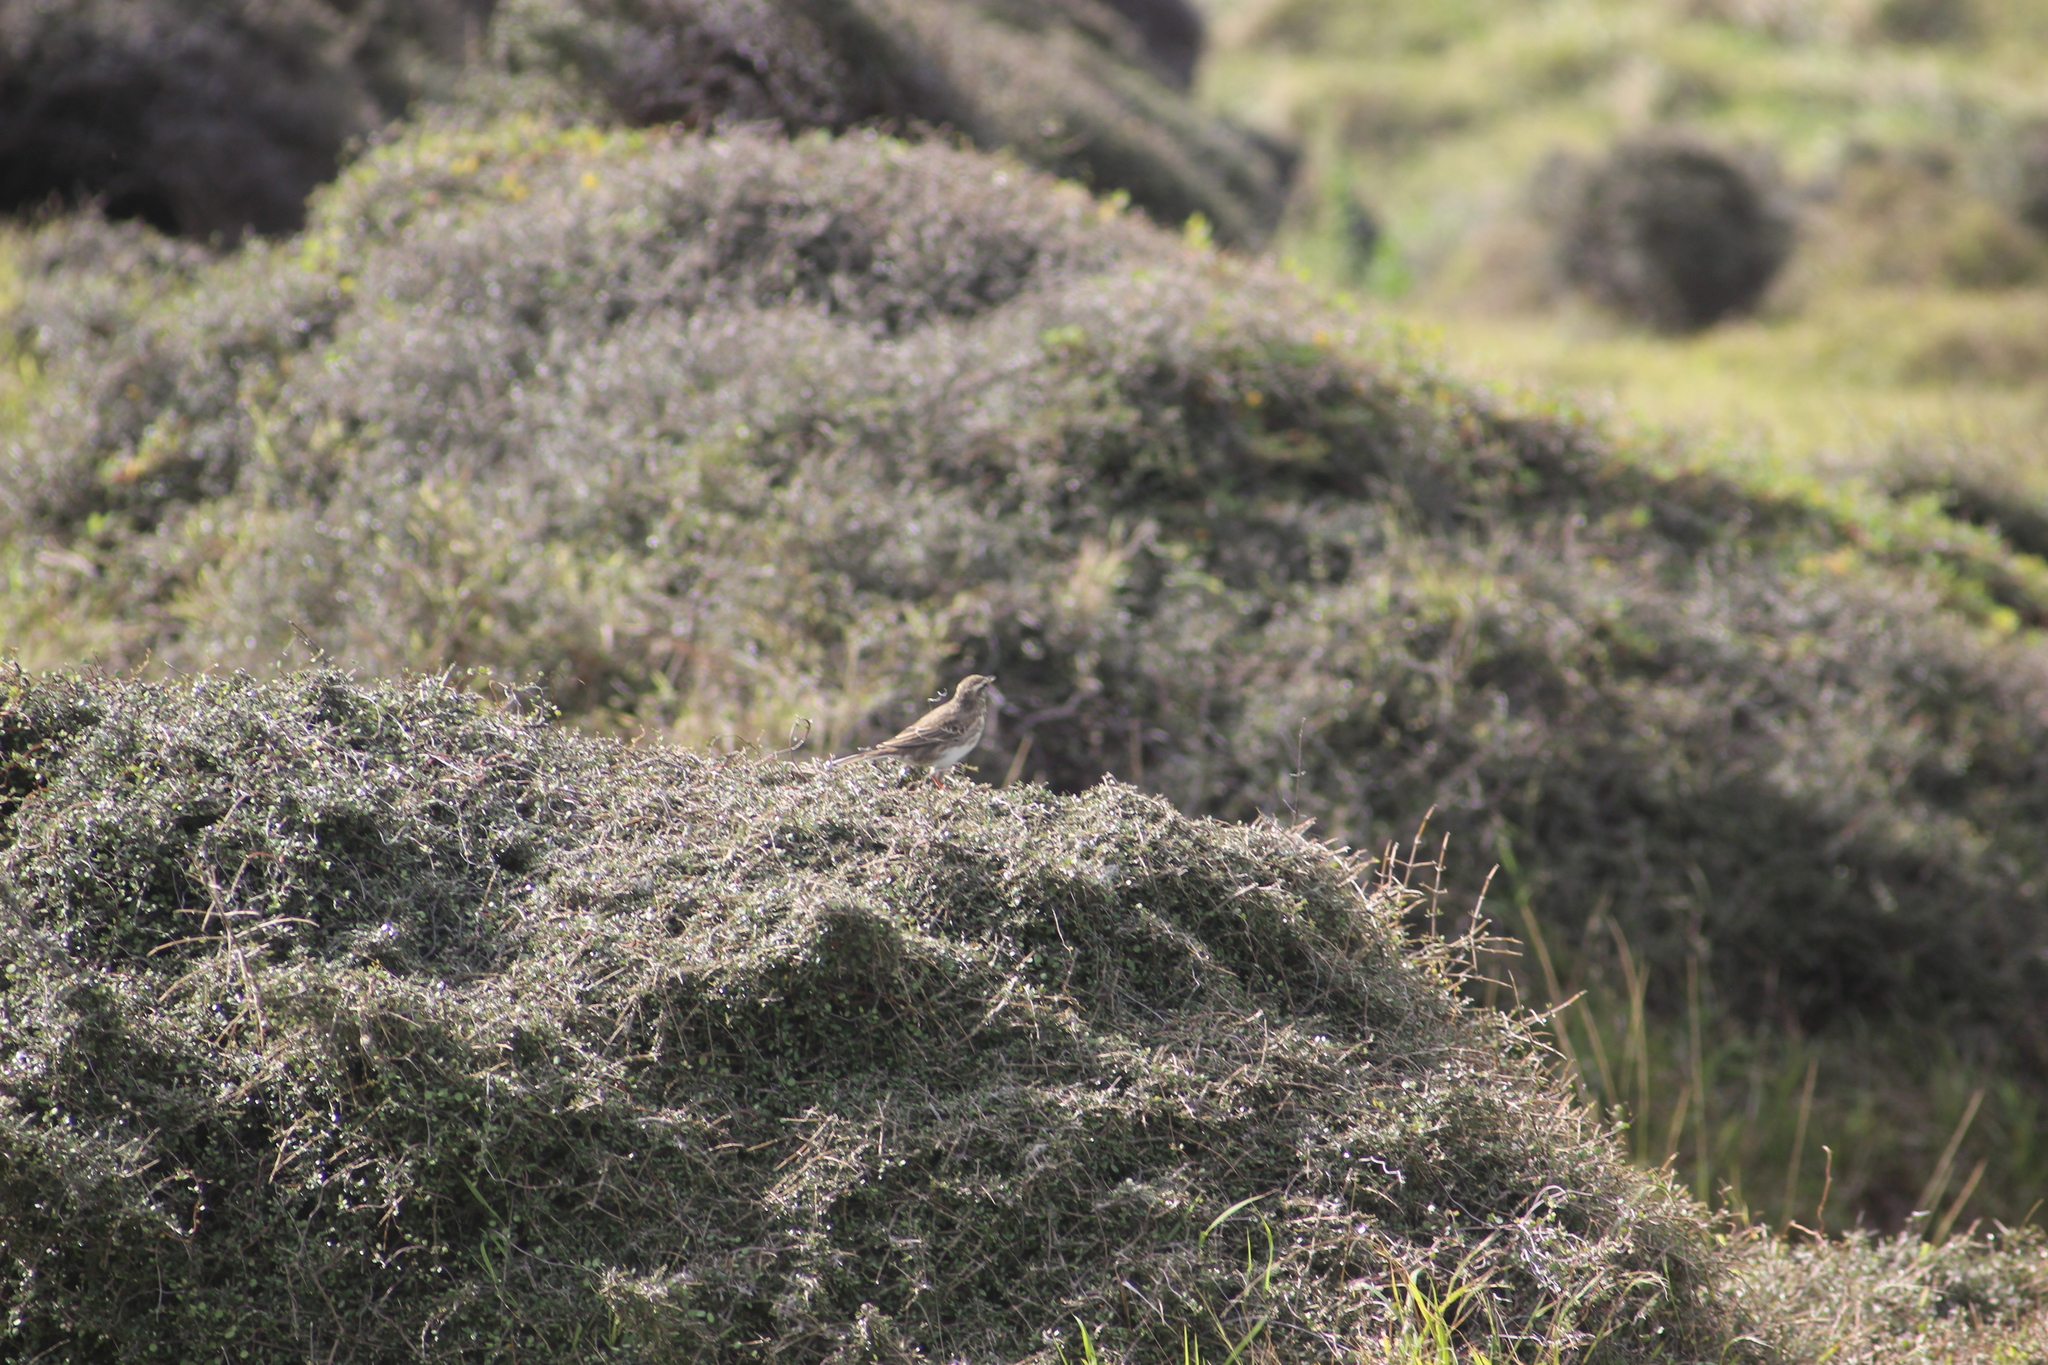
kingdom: Animalia
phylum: Chordata
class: Aves
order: Passeriformes
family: Motacillidae
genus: Anthus
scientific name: Anthus novaeseelandiae
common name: New zealand pipit
